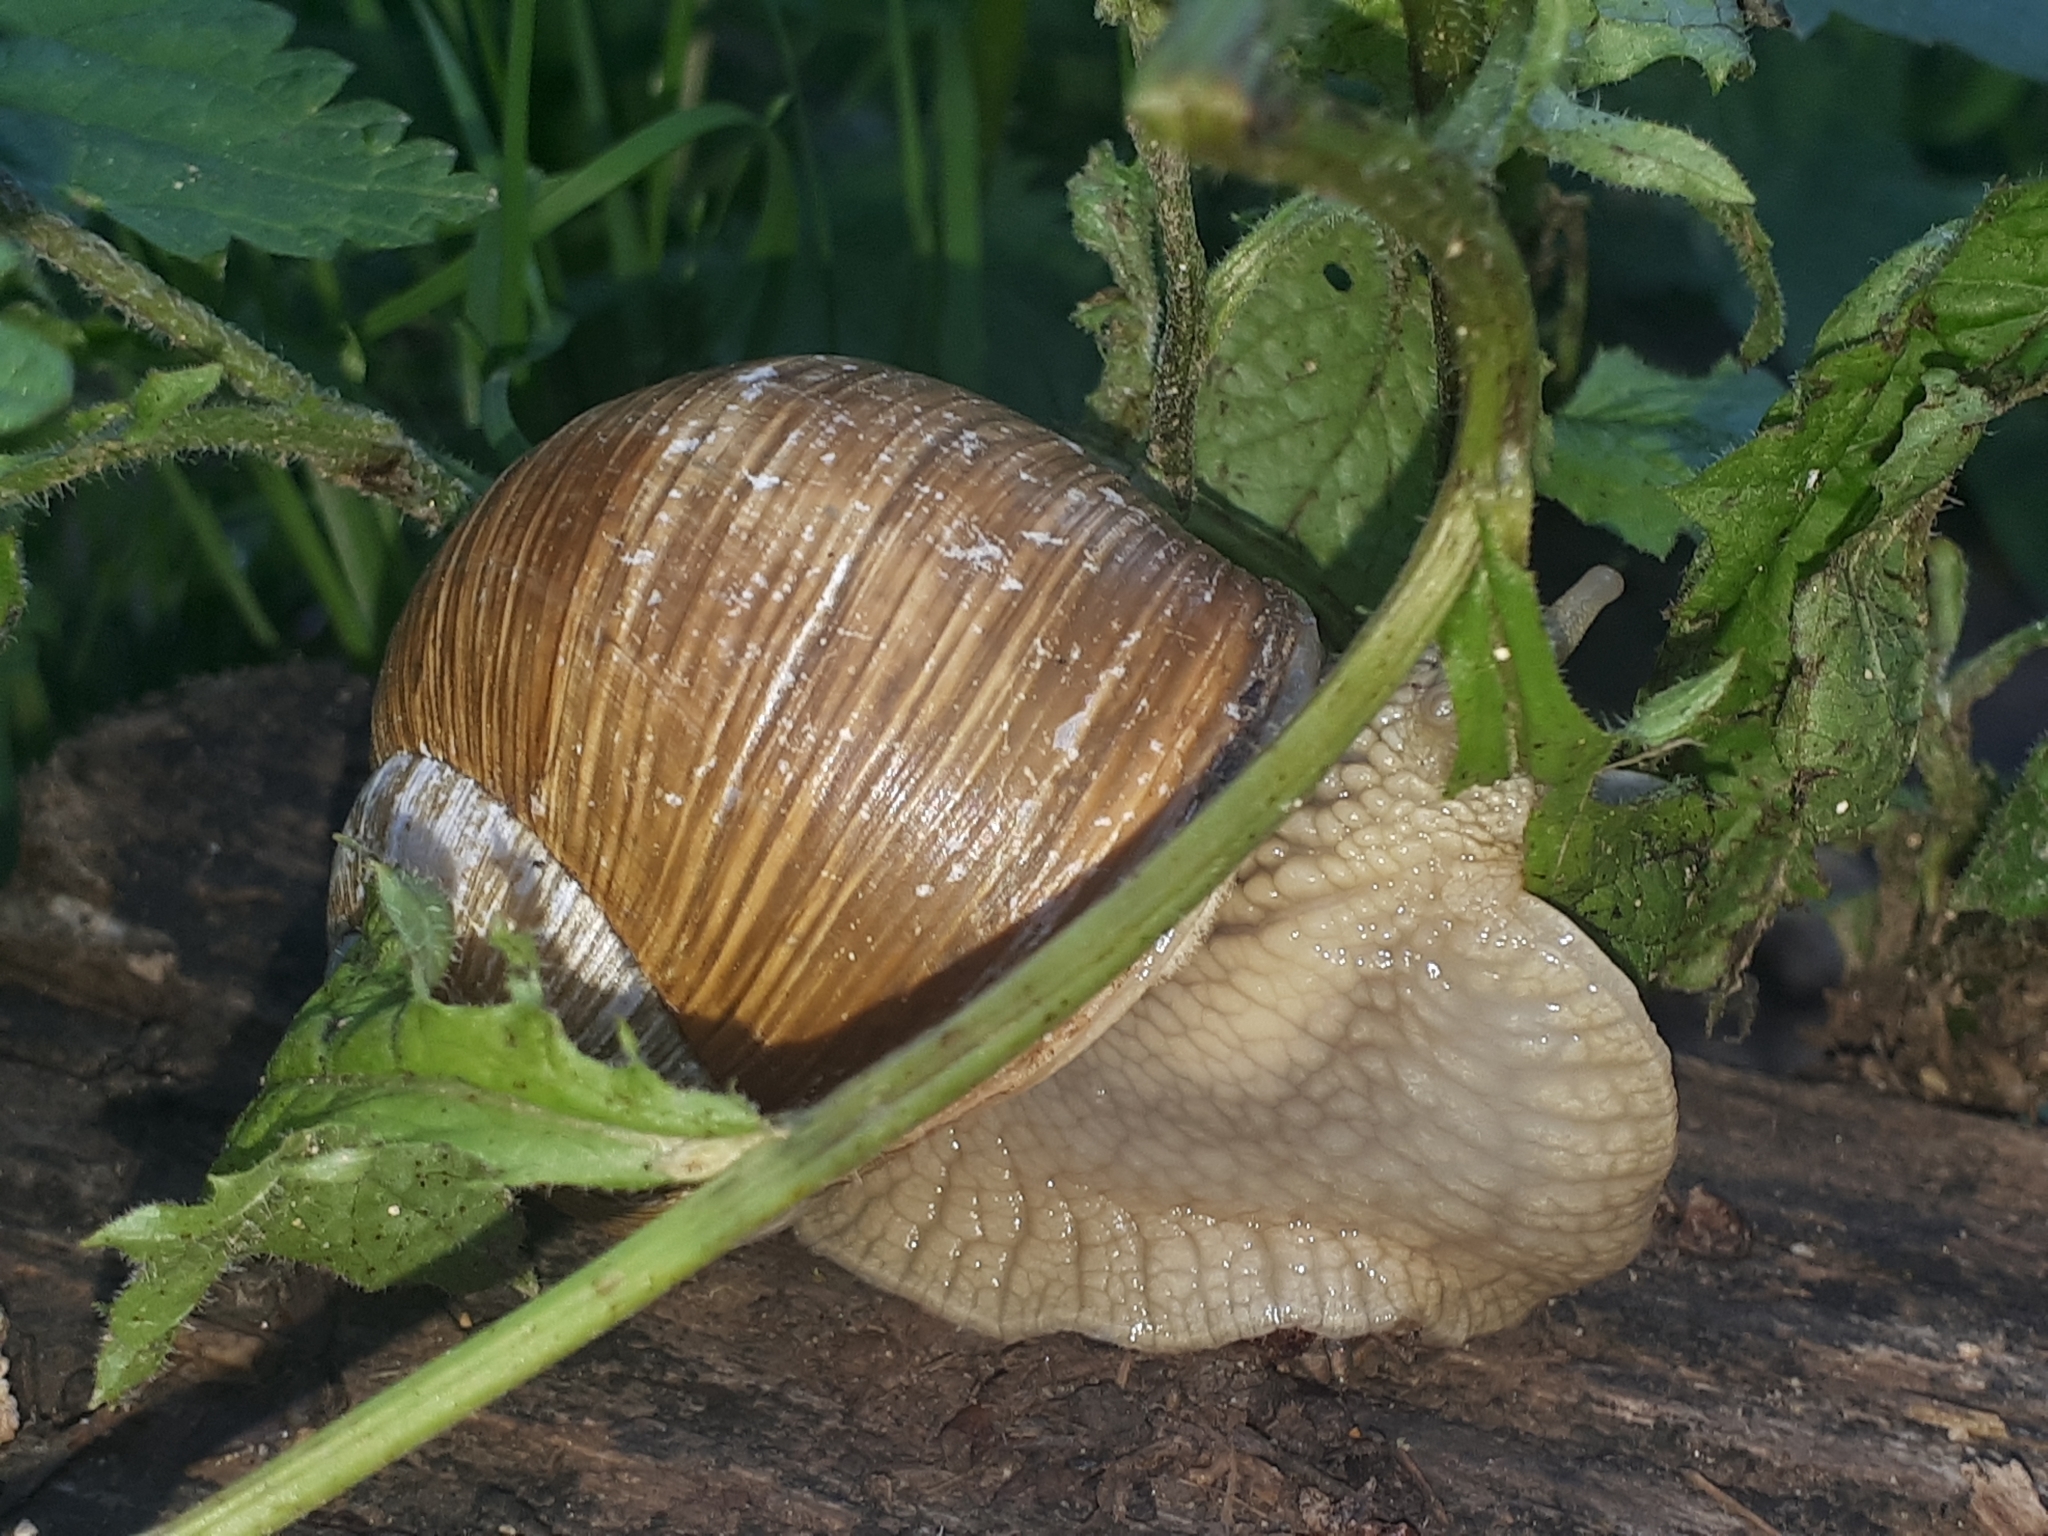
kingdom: Animalia
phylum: Mollusca
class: Gastropoda
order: Stylommatophora
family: Helicidae
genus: Helix
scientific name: Helix pomatia
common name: Roman snail
